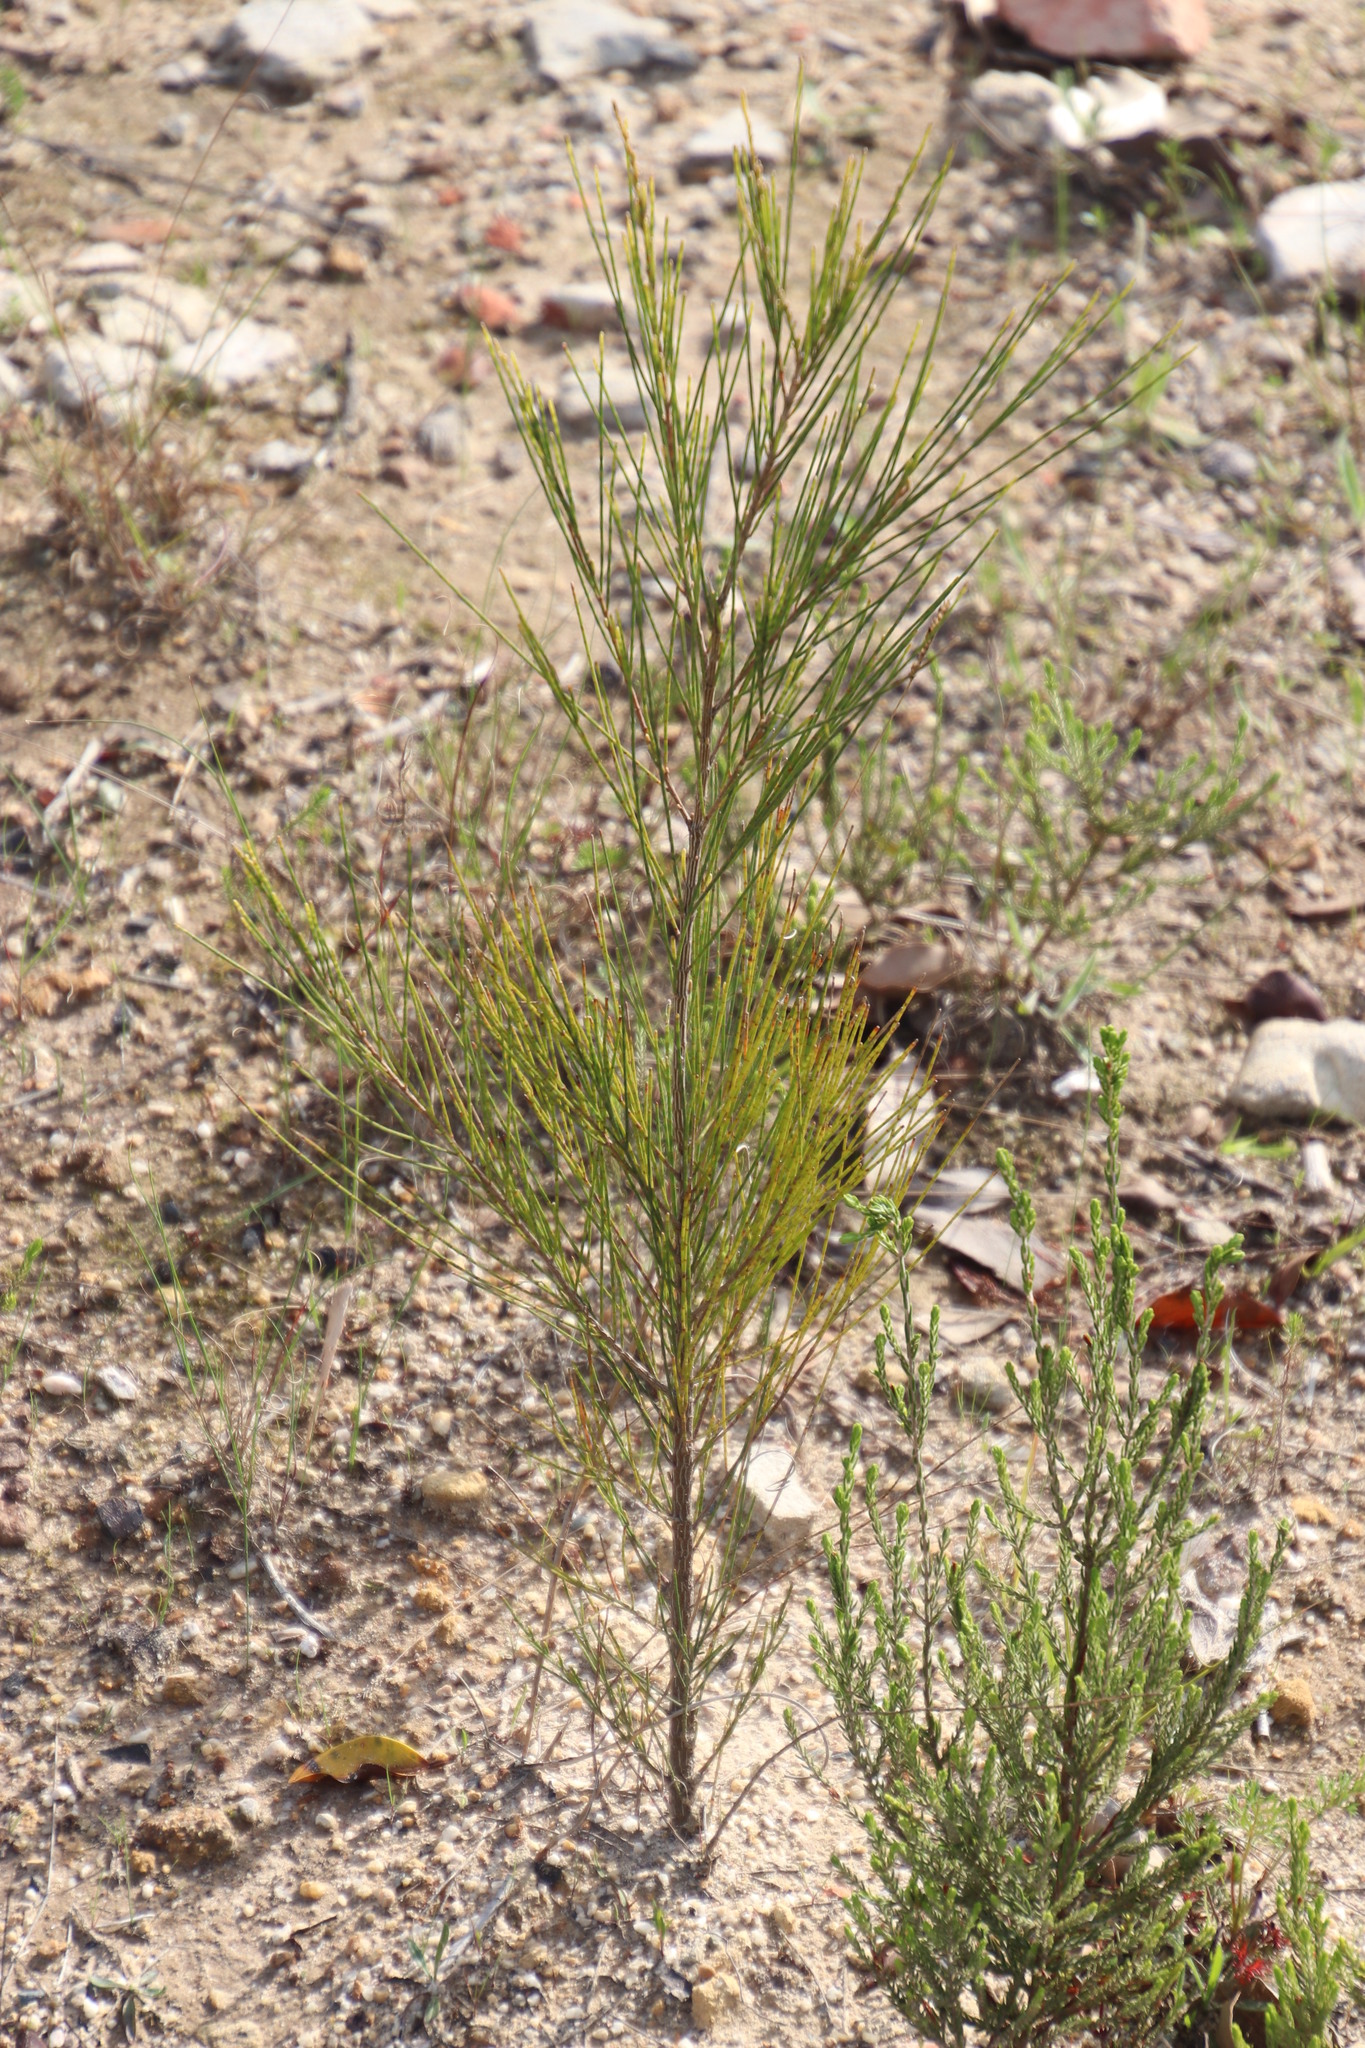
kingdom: Plantae
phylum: Tracheophyta
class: Magnoliopsida
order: Fagales
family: Casuarinaceae
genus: Casuarina
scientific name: Casuarina cunninghamiana
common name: River sheoak
